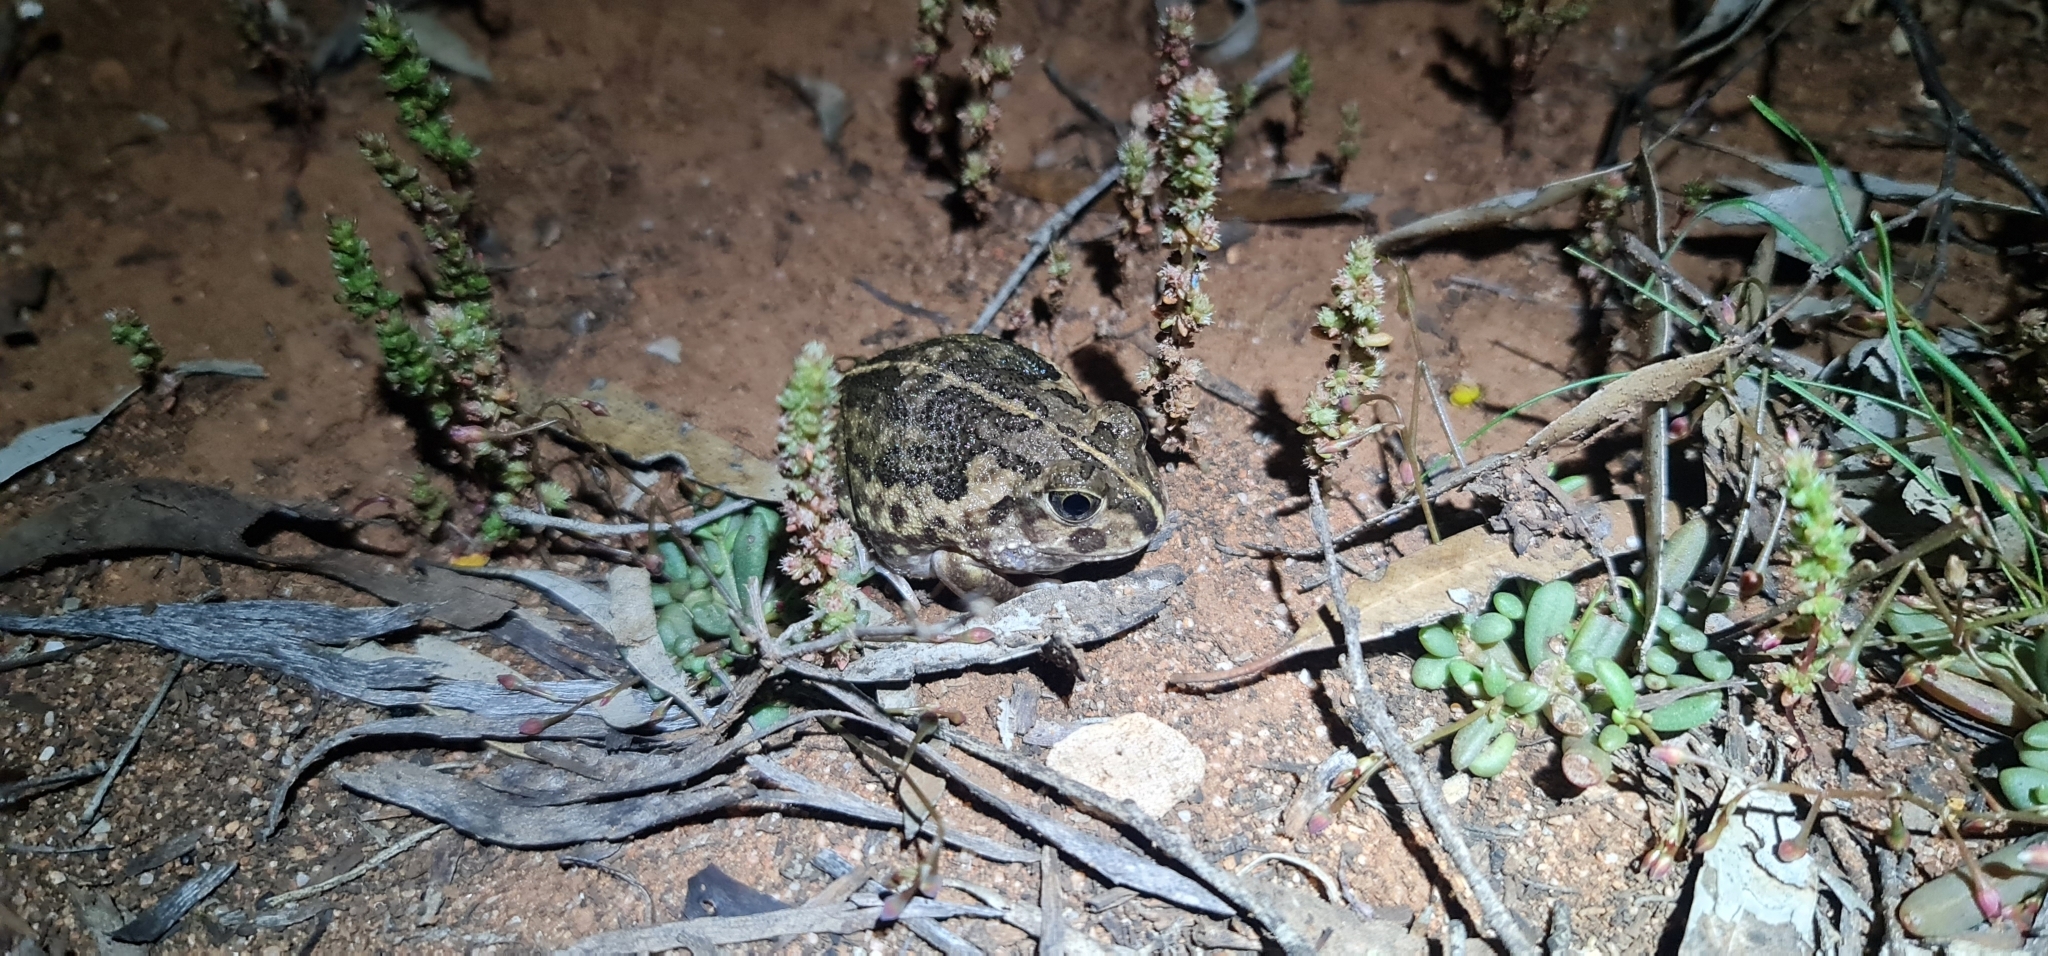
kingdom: Animalia
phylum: Chordata
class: Amphibia
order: Anura
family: Limnodynastidae
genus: Neobatrachus
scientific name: Neobatrachus sudelli
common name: Common spadefoot toad
